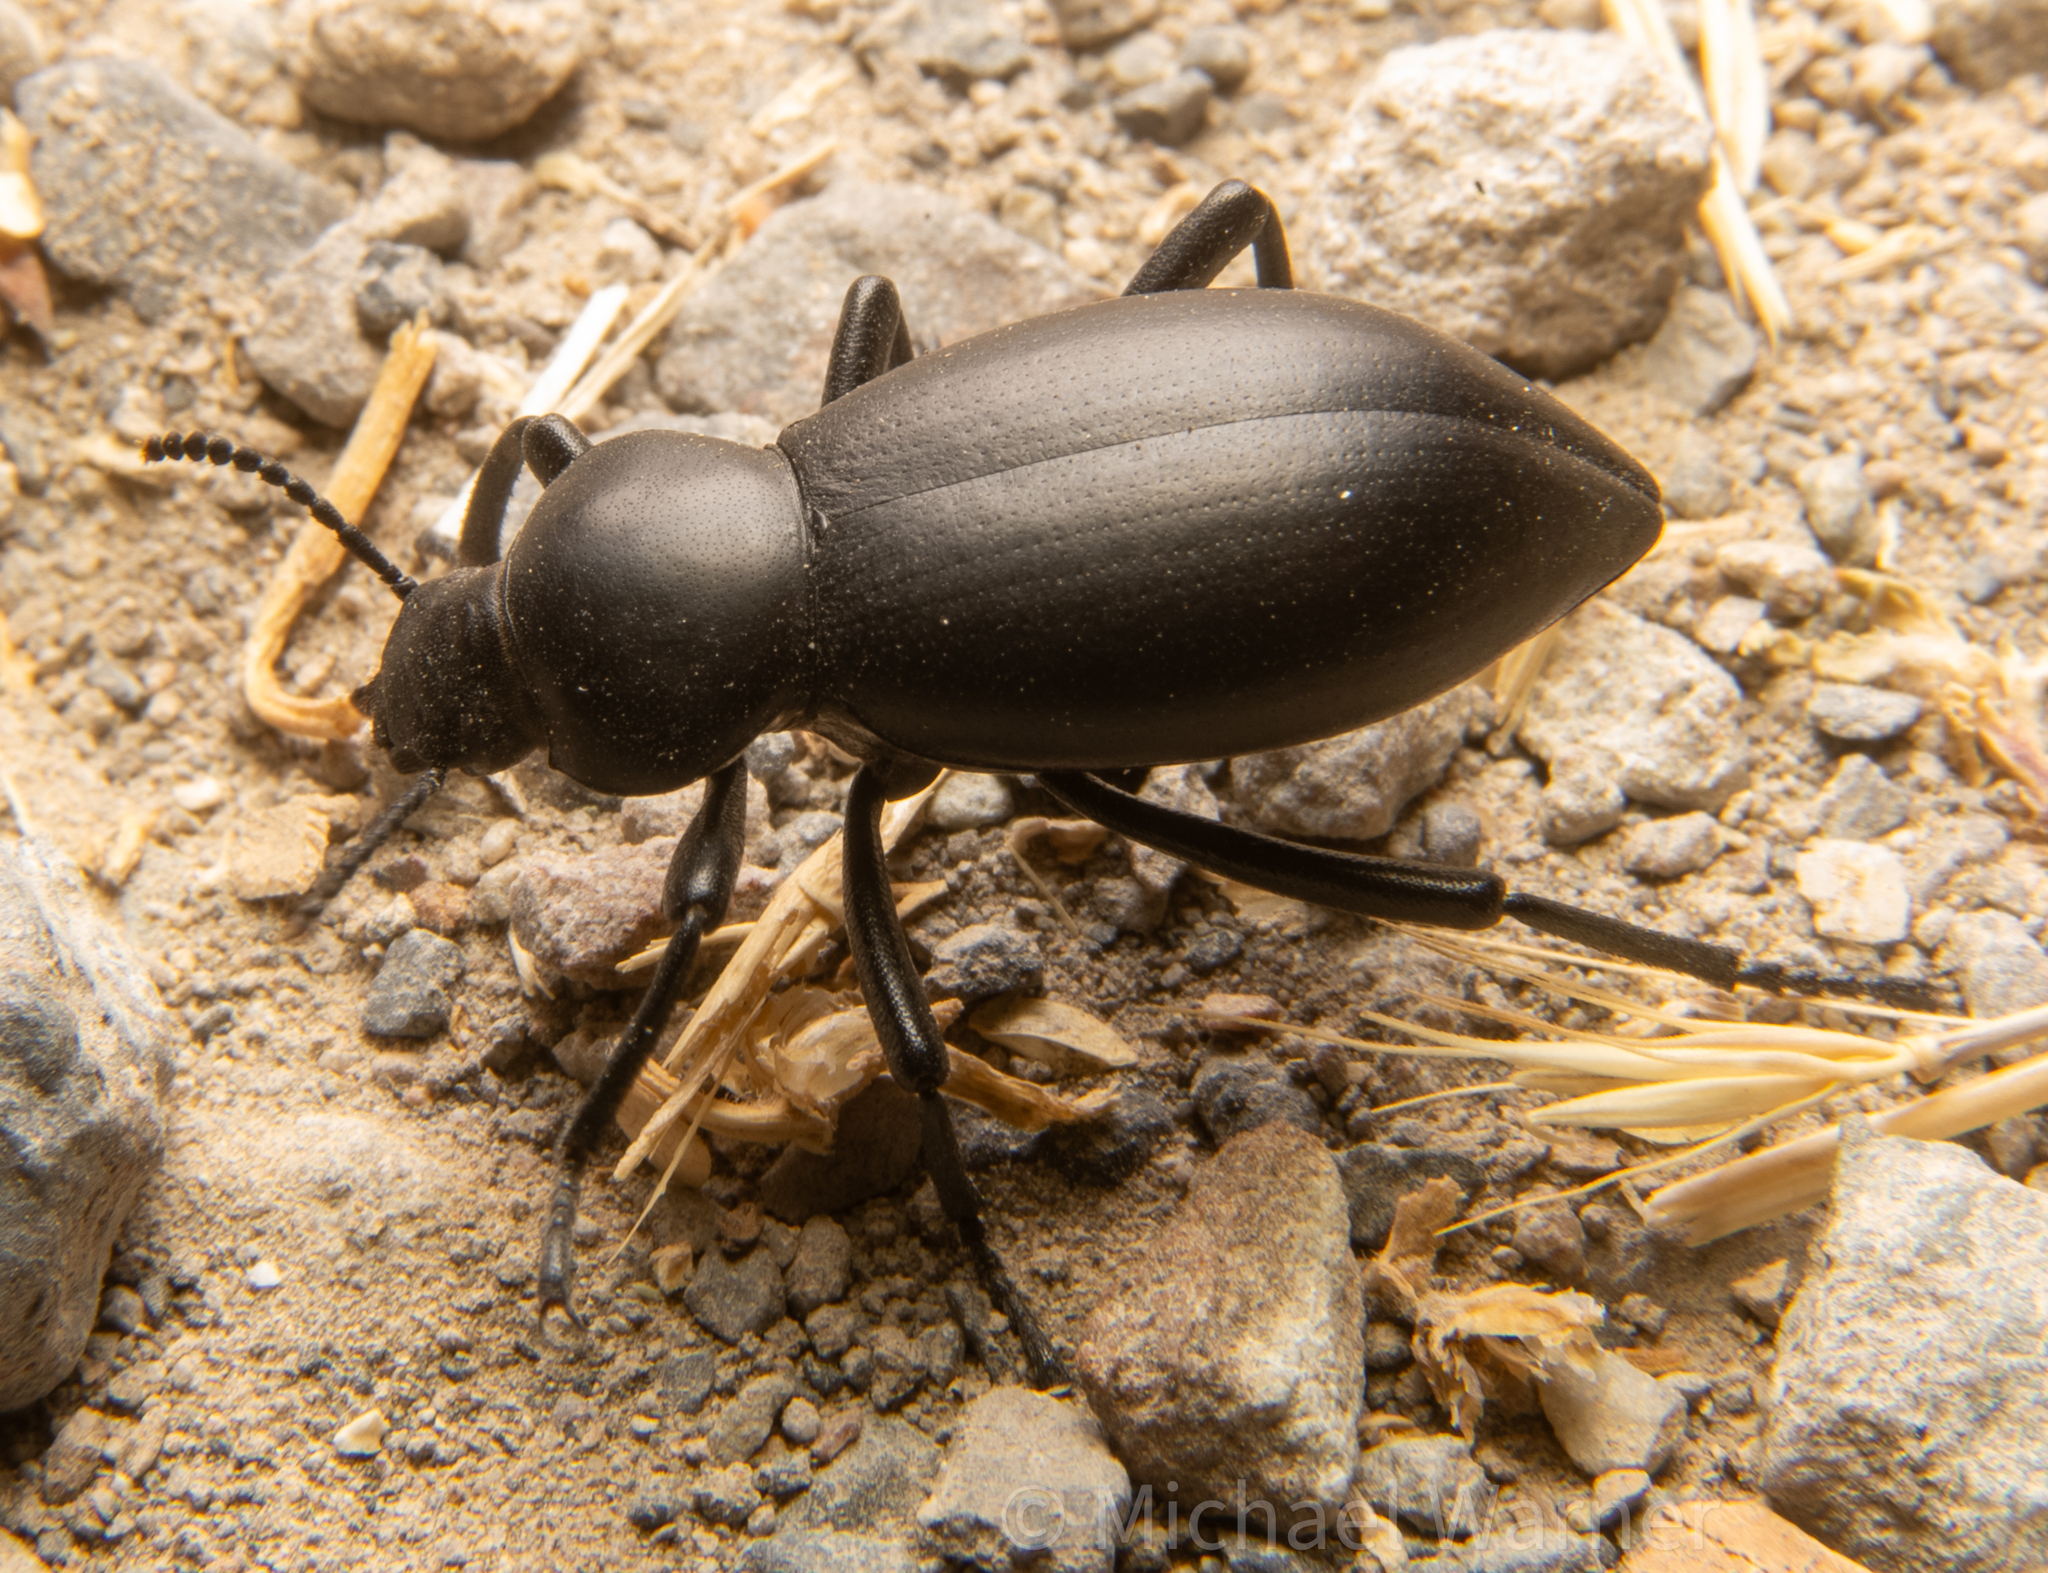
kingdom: Animalia
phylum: Arthropoda
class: Insecta
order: Coleoptera
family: Tenebrionidae
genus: Eleodes
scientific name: Eleodes dentipes
